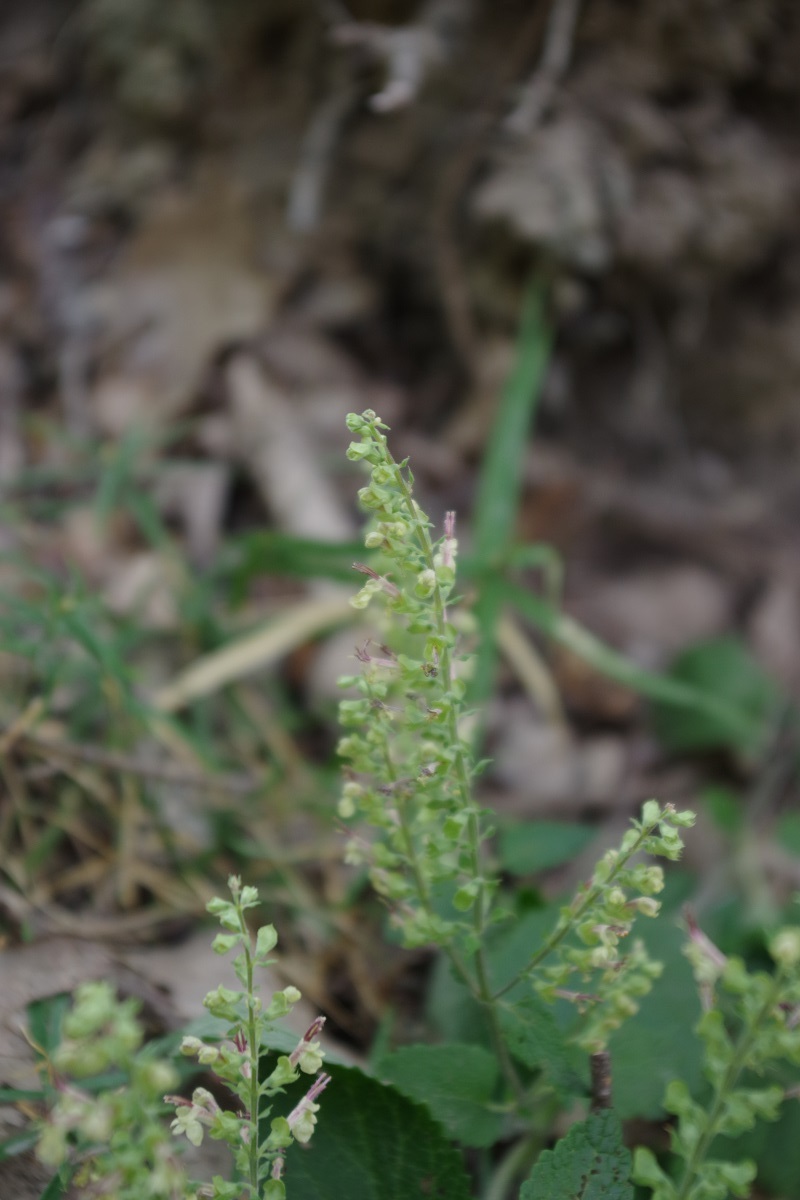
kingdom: Plantae
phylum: Tracheophyta
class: Magnoliopsida
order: Lamiales
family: Lamiaceae
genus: Teucrium
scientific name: Teucrium scorodonia
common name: Woodland germander
